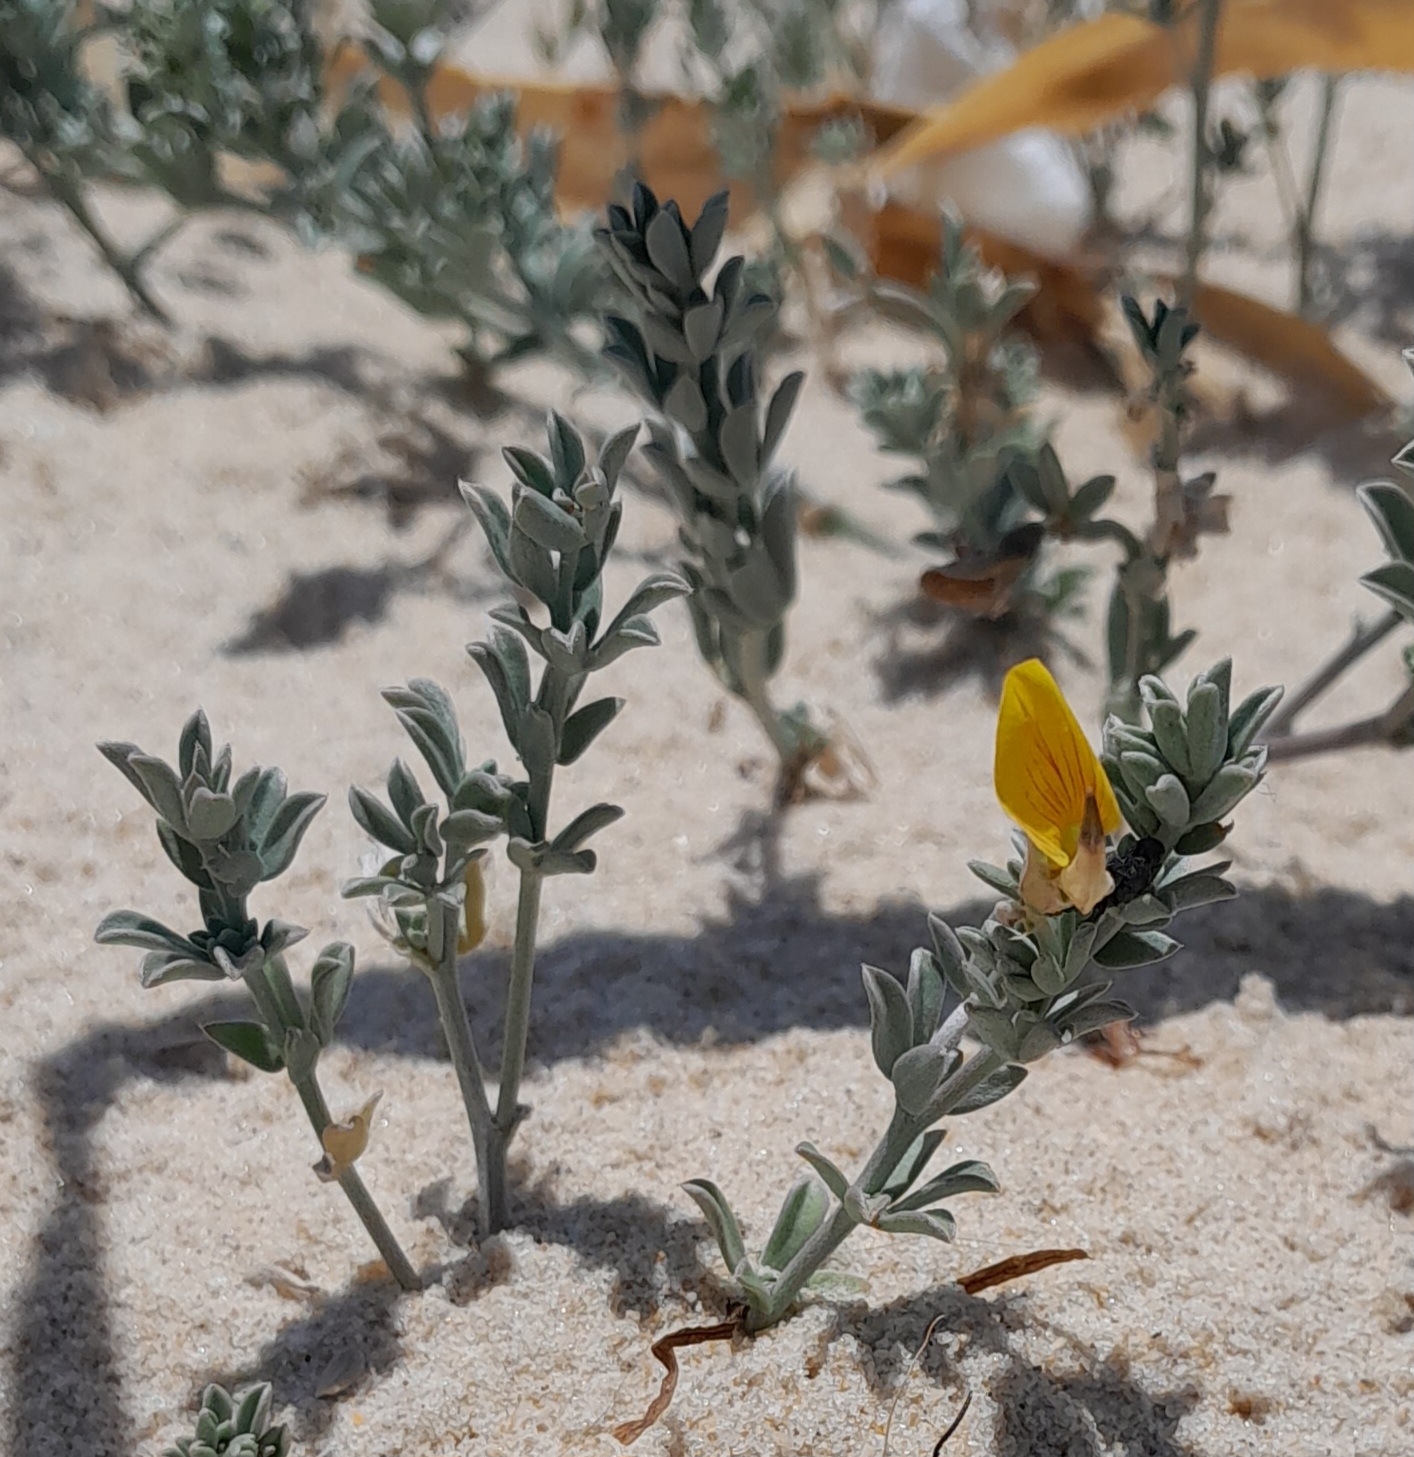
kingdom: Plantae
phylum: Tracheophyta
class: Magnoliopsida
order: Fabales
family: Fabaceae
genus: Lotus
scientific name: Lotus creticus
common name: Cretan bird's-foot trefoil
